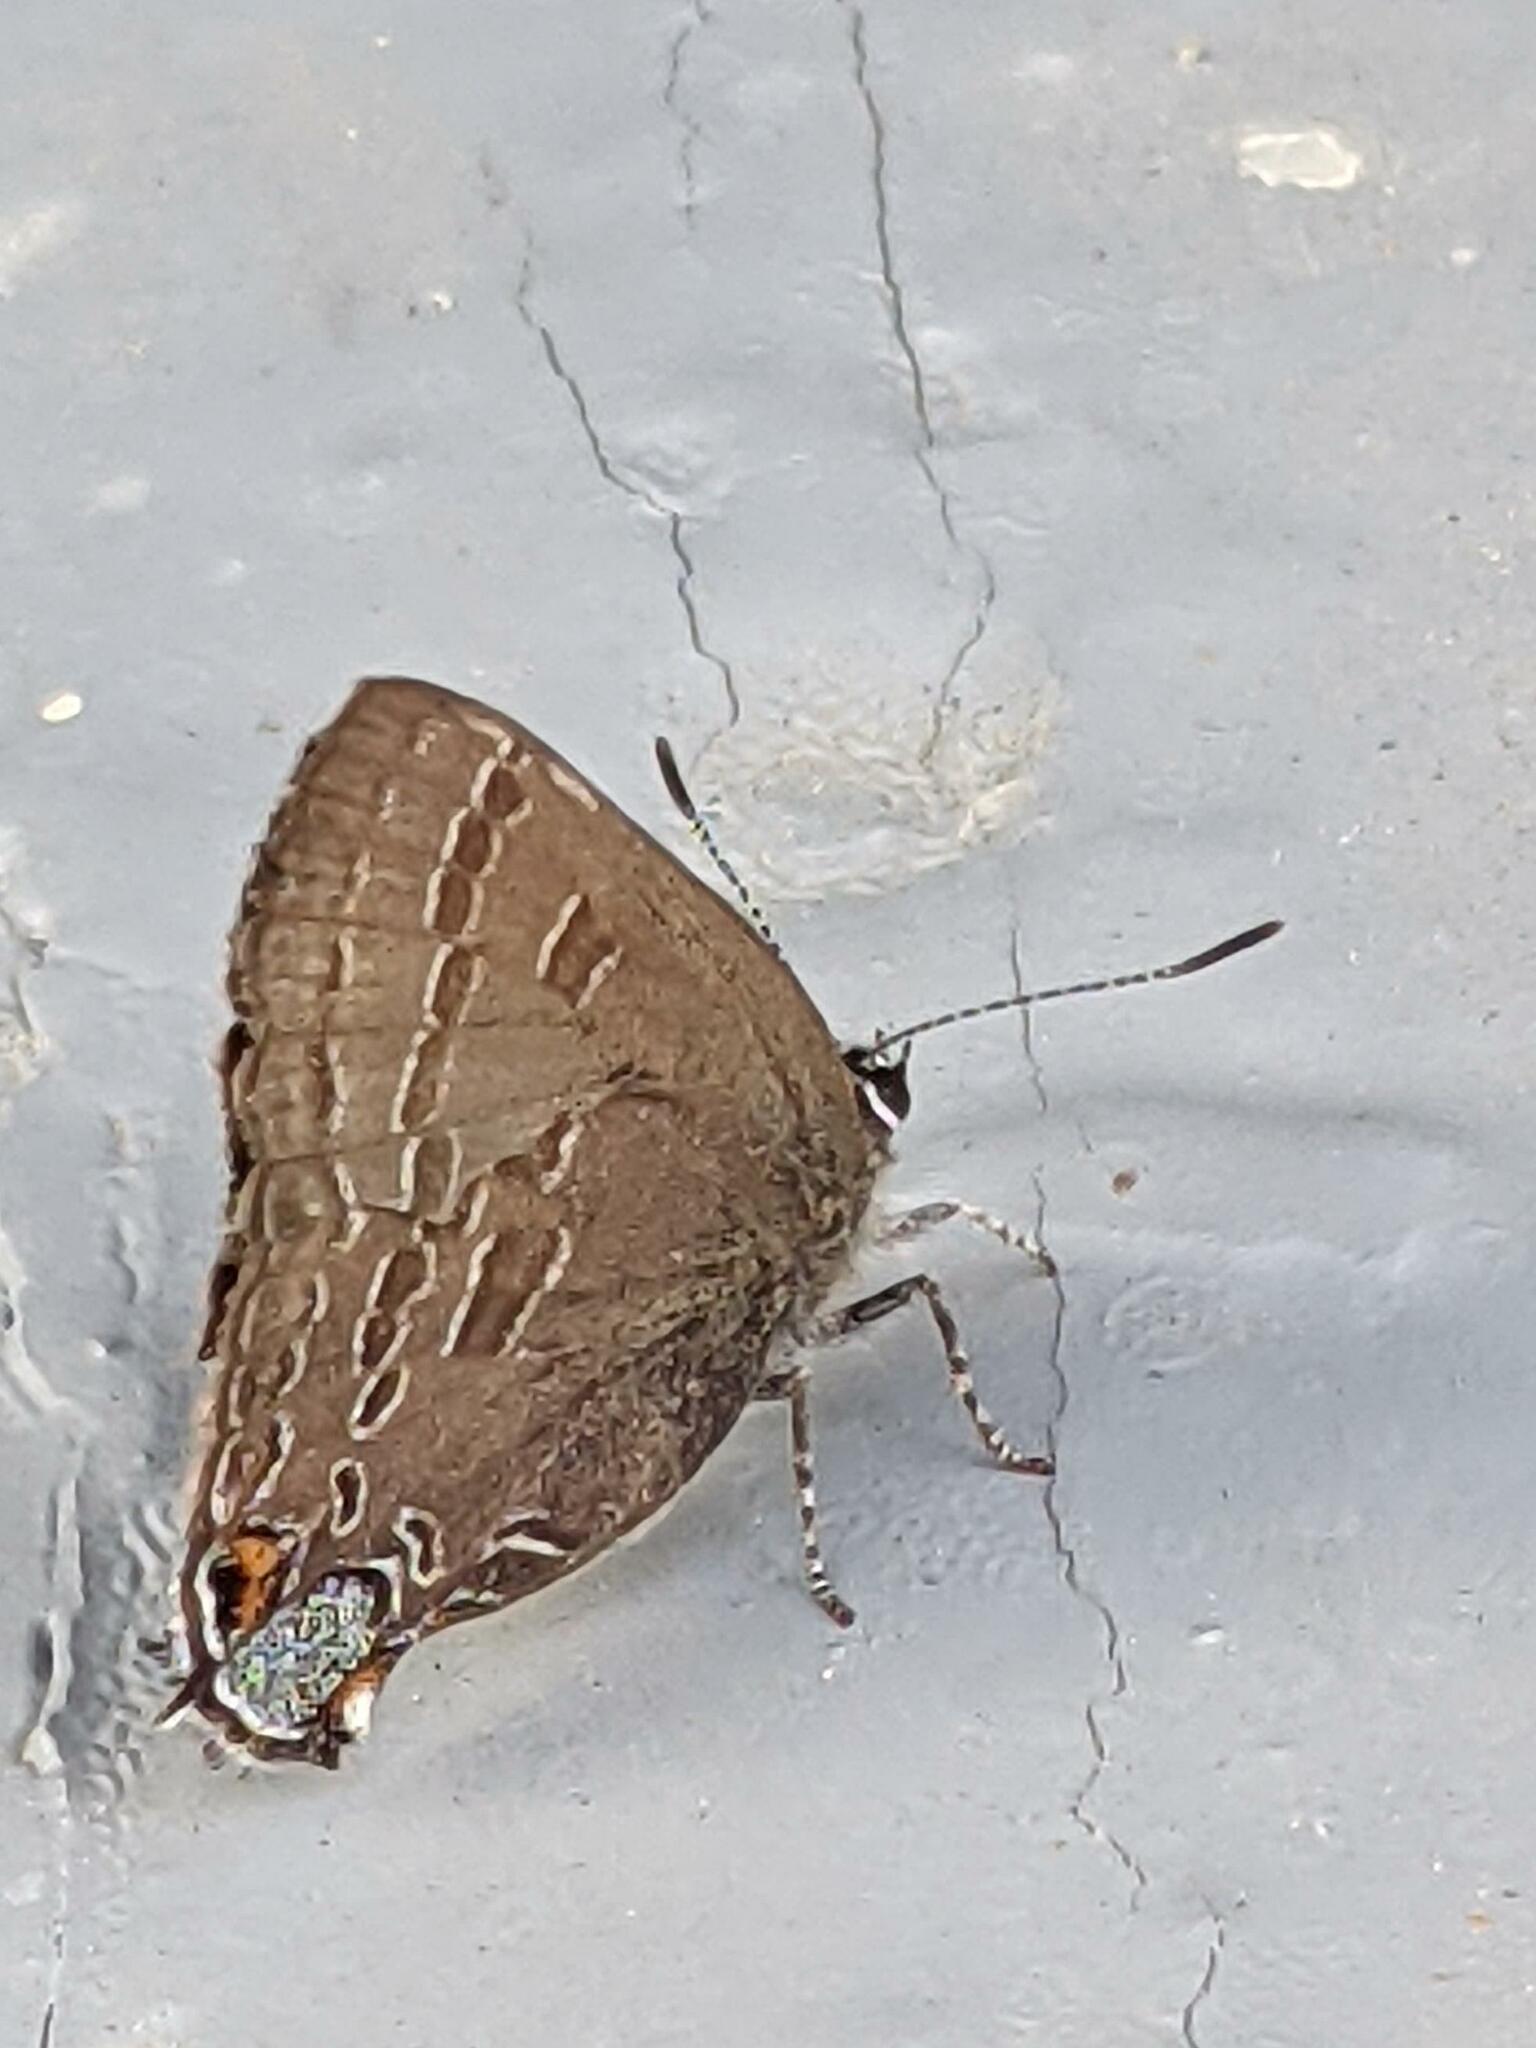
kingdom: Animalia
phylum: Arthropoda
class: Insecta
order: Lepidoptera
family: Lycaenidae
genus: Strymon
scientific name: Strymon caryaevorus
